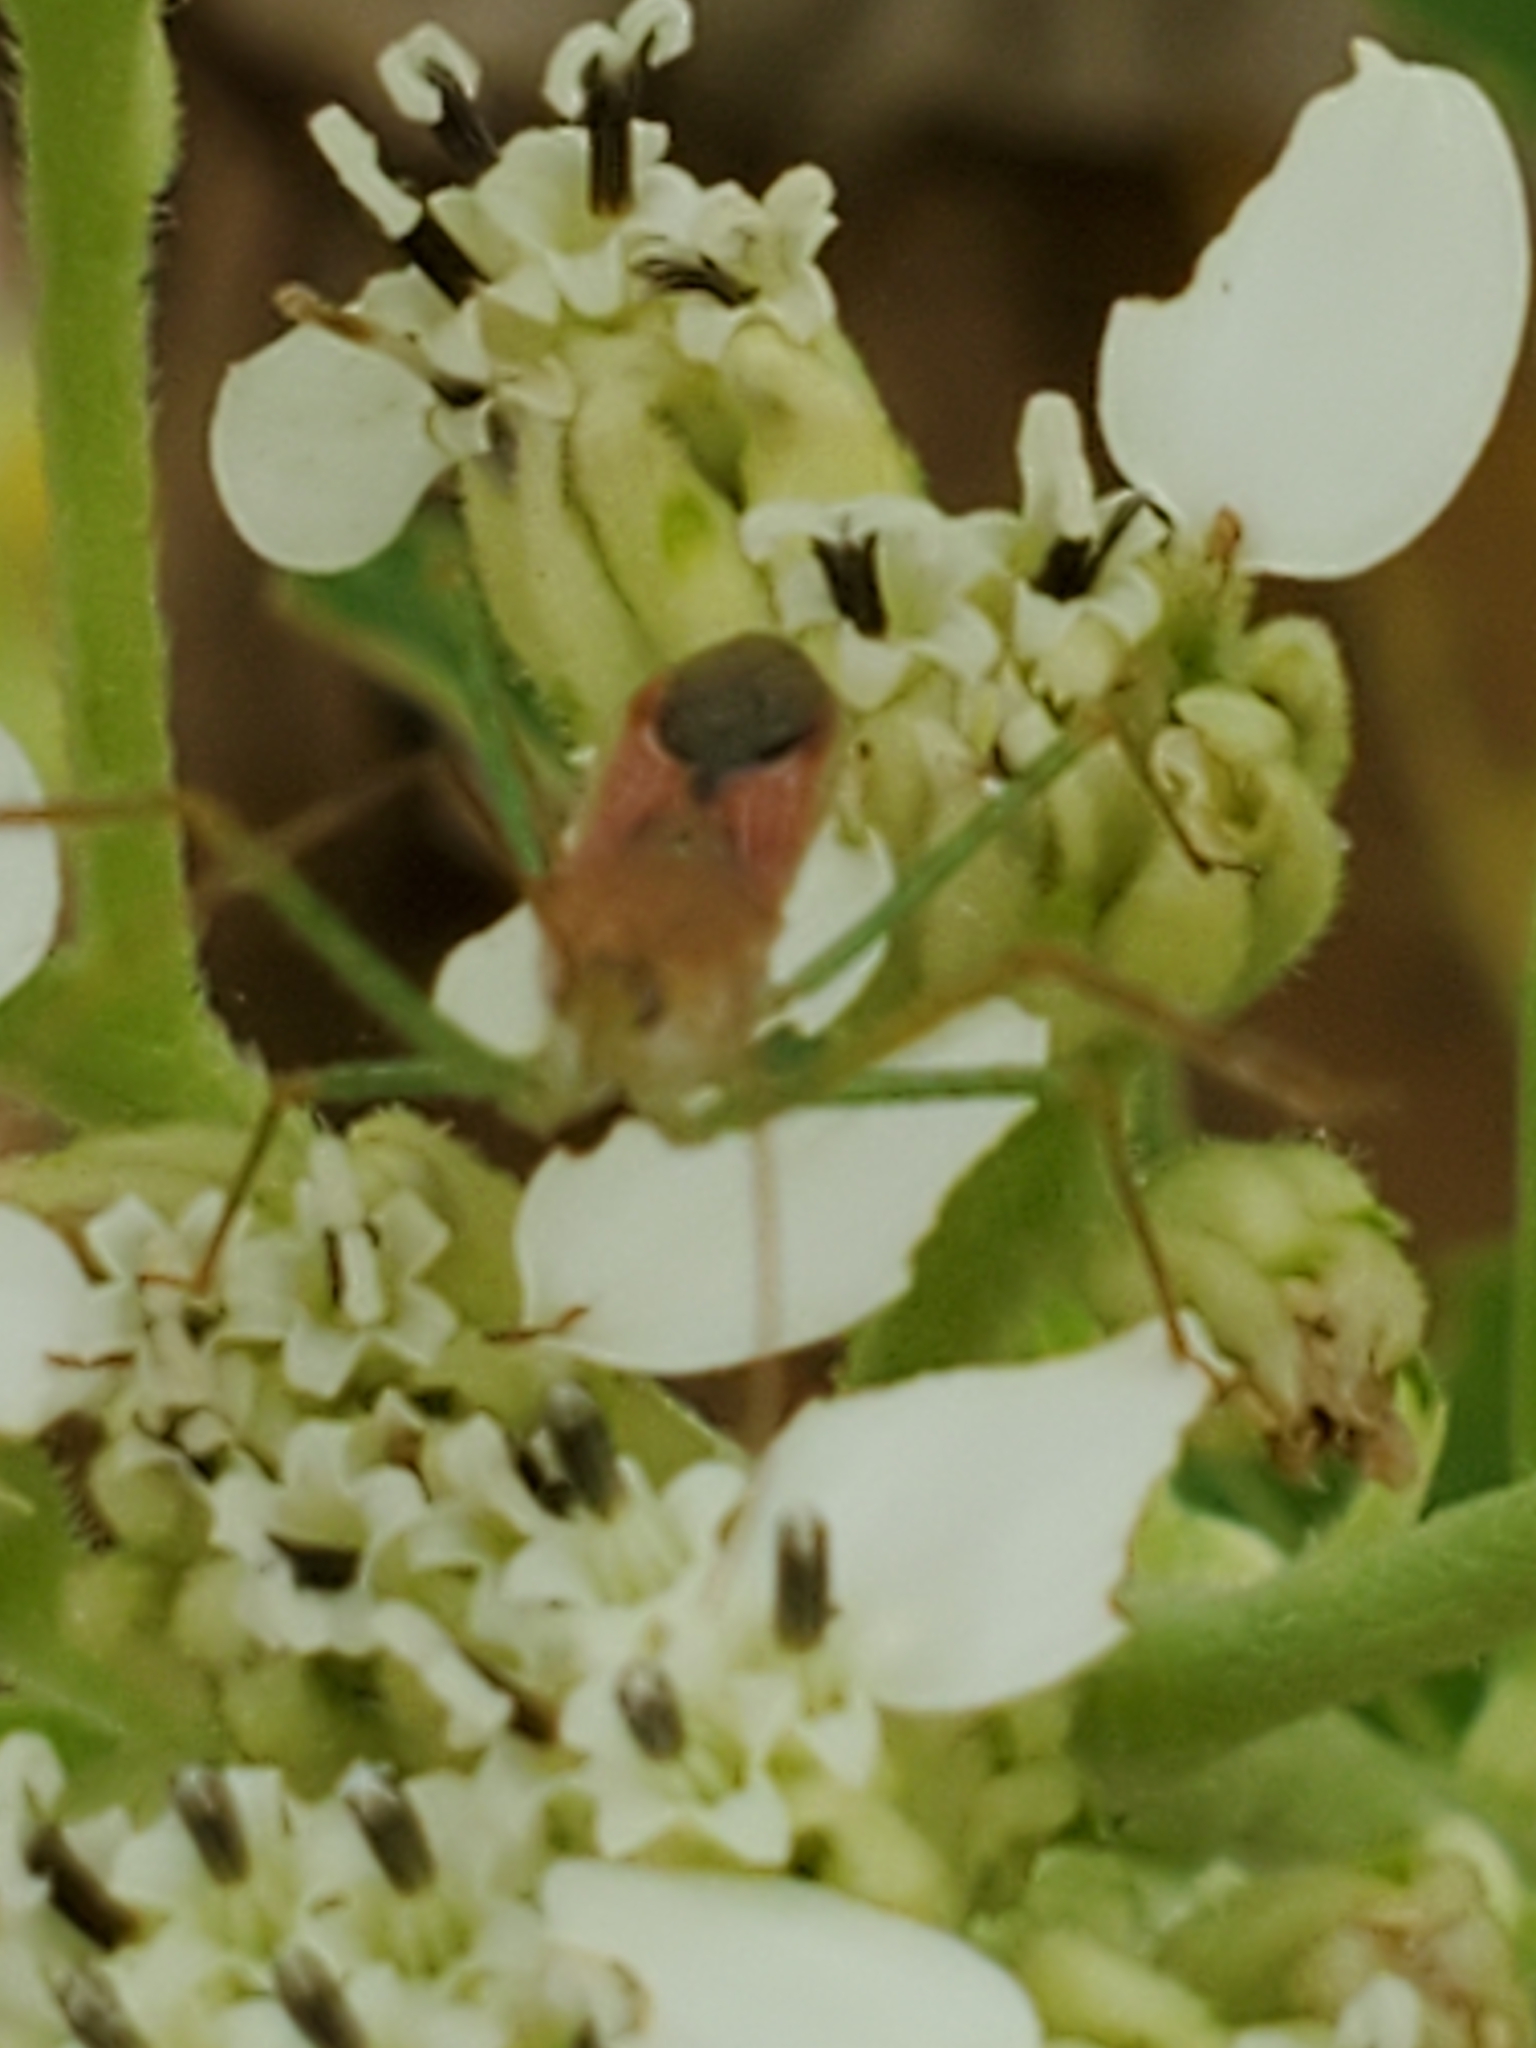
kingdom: Animalia
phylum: Arthropoda
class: Insecta
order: Hemiptera
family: Reduviidae
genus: Zelus
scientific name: Zelus renardii
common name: Assassin bug
